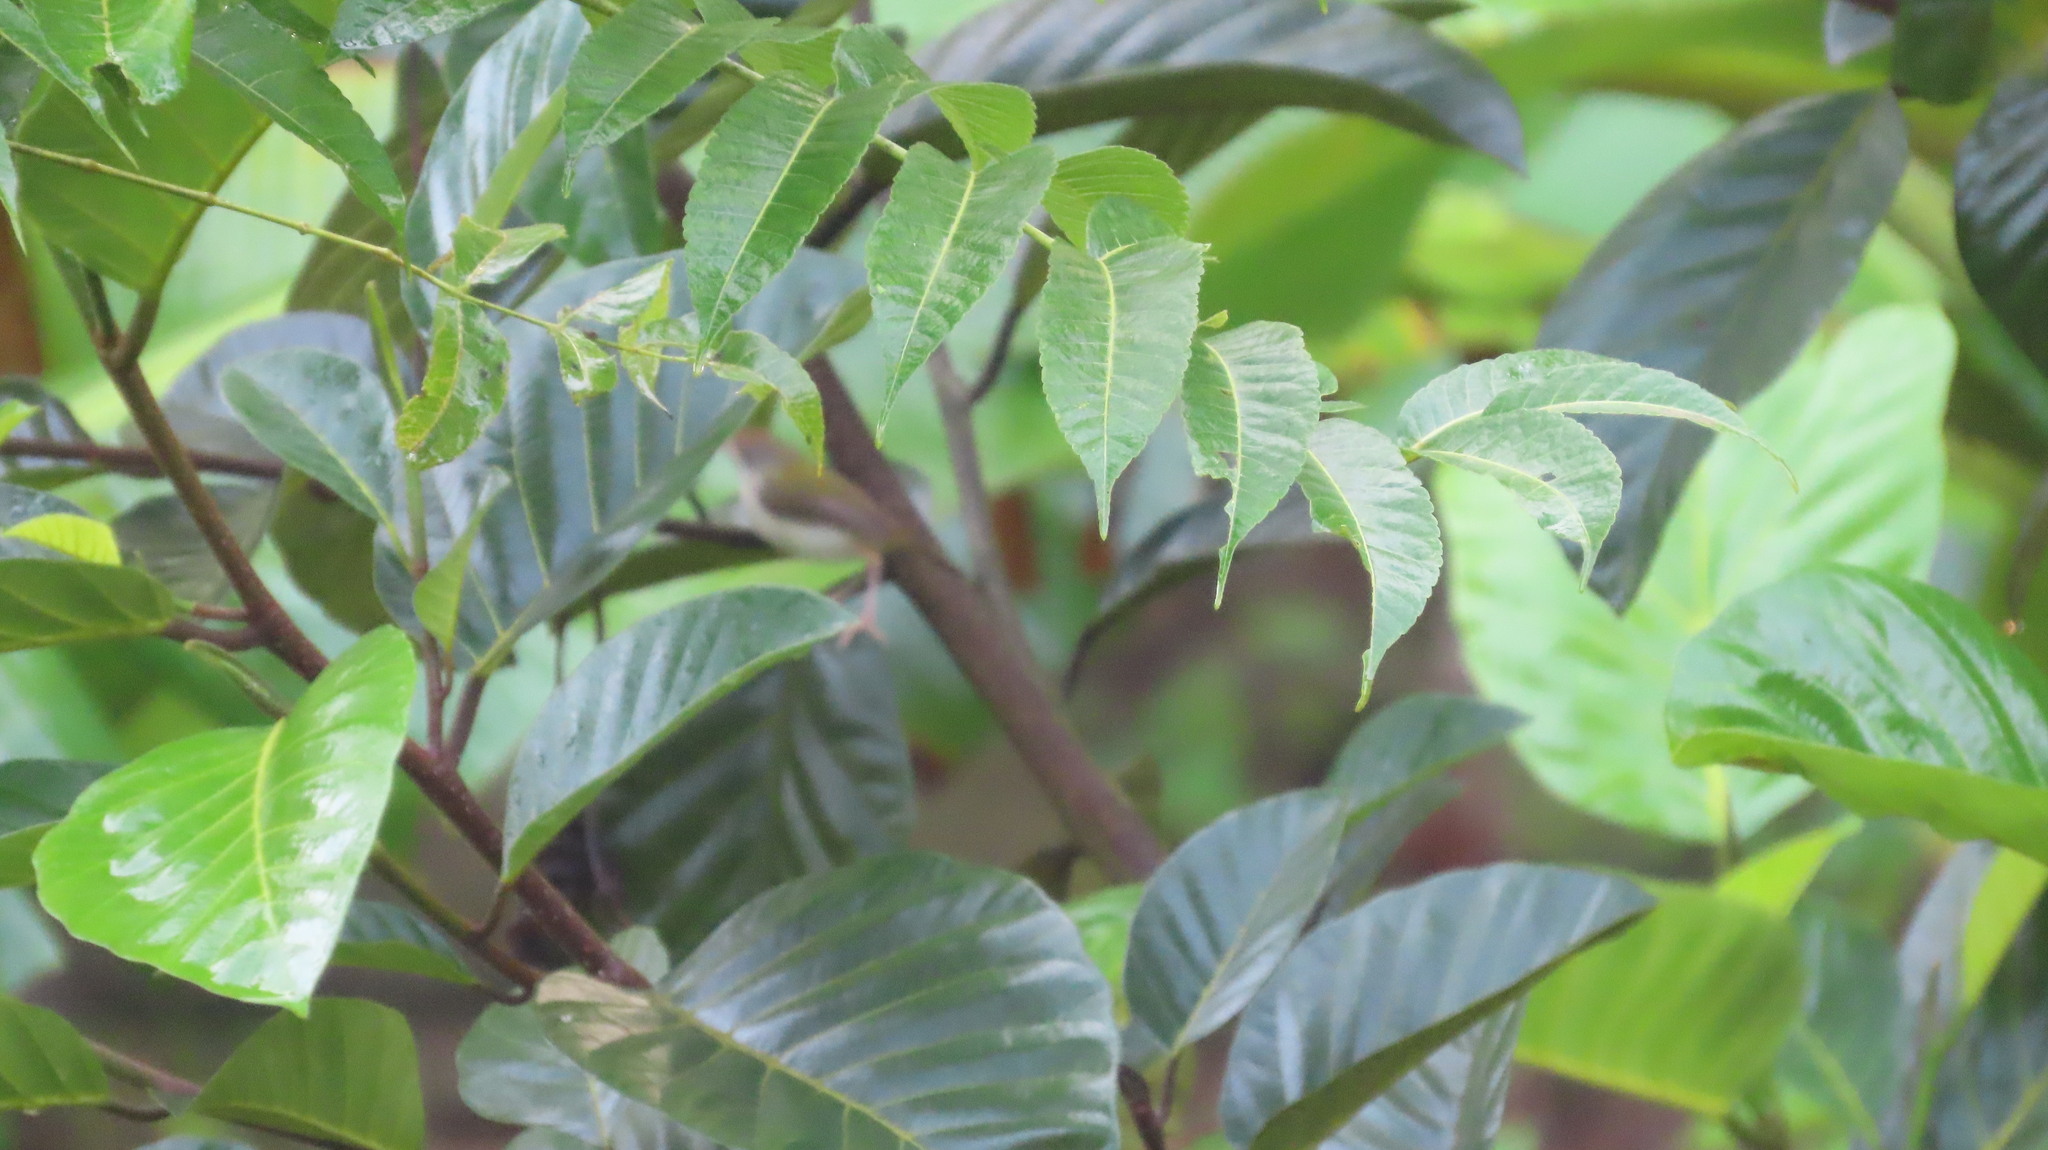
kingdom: Animalia
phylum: Chordata
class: Aves
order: Passeriformes
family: Cisticolidae
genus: Orthotomus
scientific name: Orthotomus sutorius
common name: Common tailorbird
